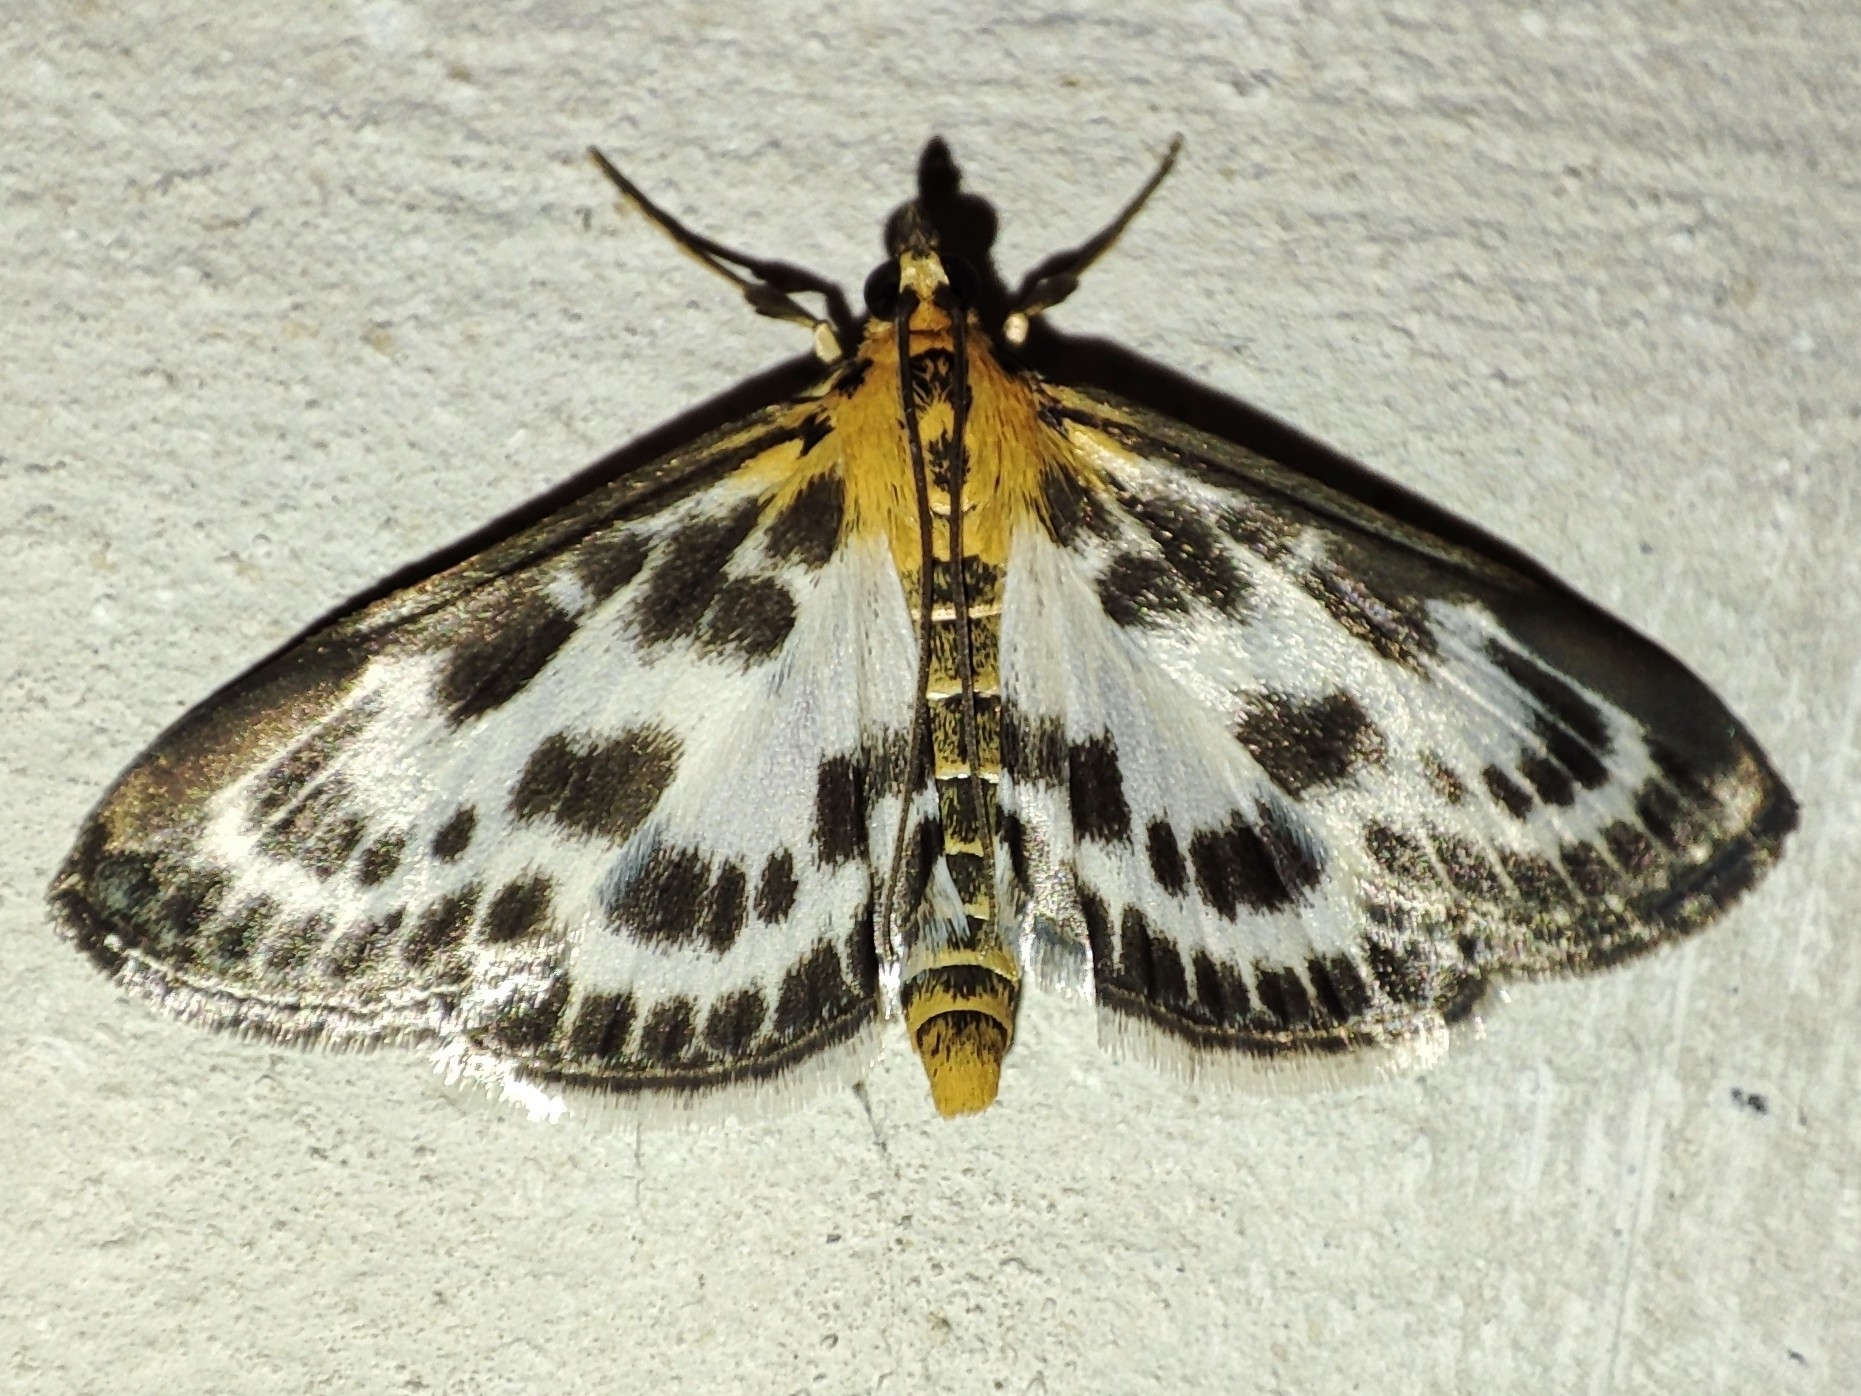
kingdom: Animalia
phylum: Arthropoda
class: Insecta
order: Lepidoptera
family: Crambidae
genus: Anania
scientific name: Anania hortulata
